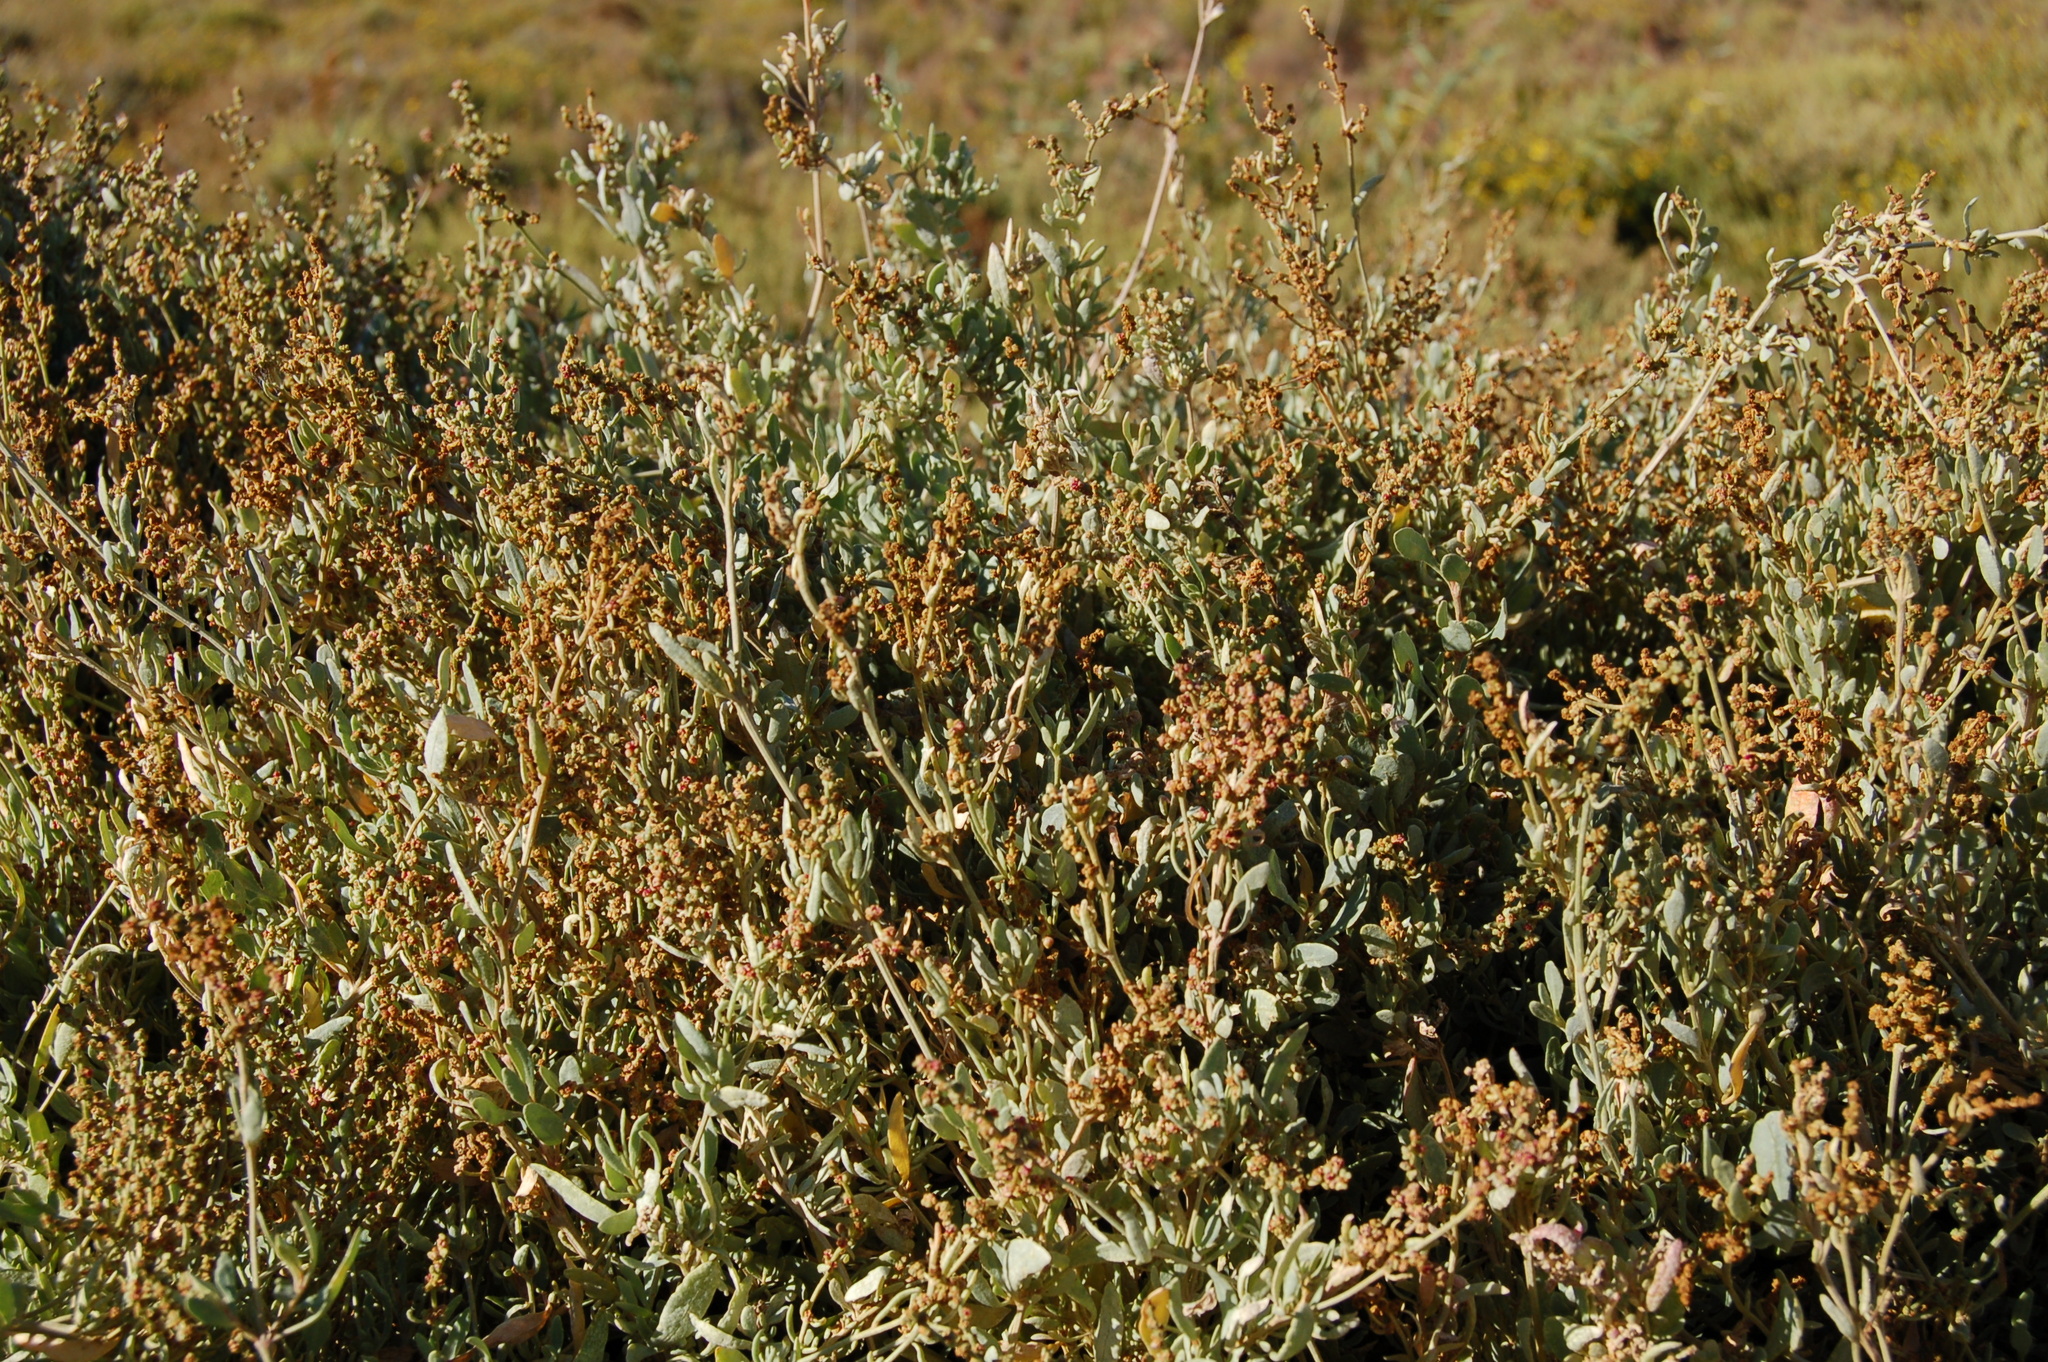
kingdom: Plantae
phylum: Tracheophyta
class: Magnoliopsida
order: Caryophyllales
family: Amaranthaceae
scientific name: Amaranthaceae
